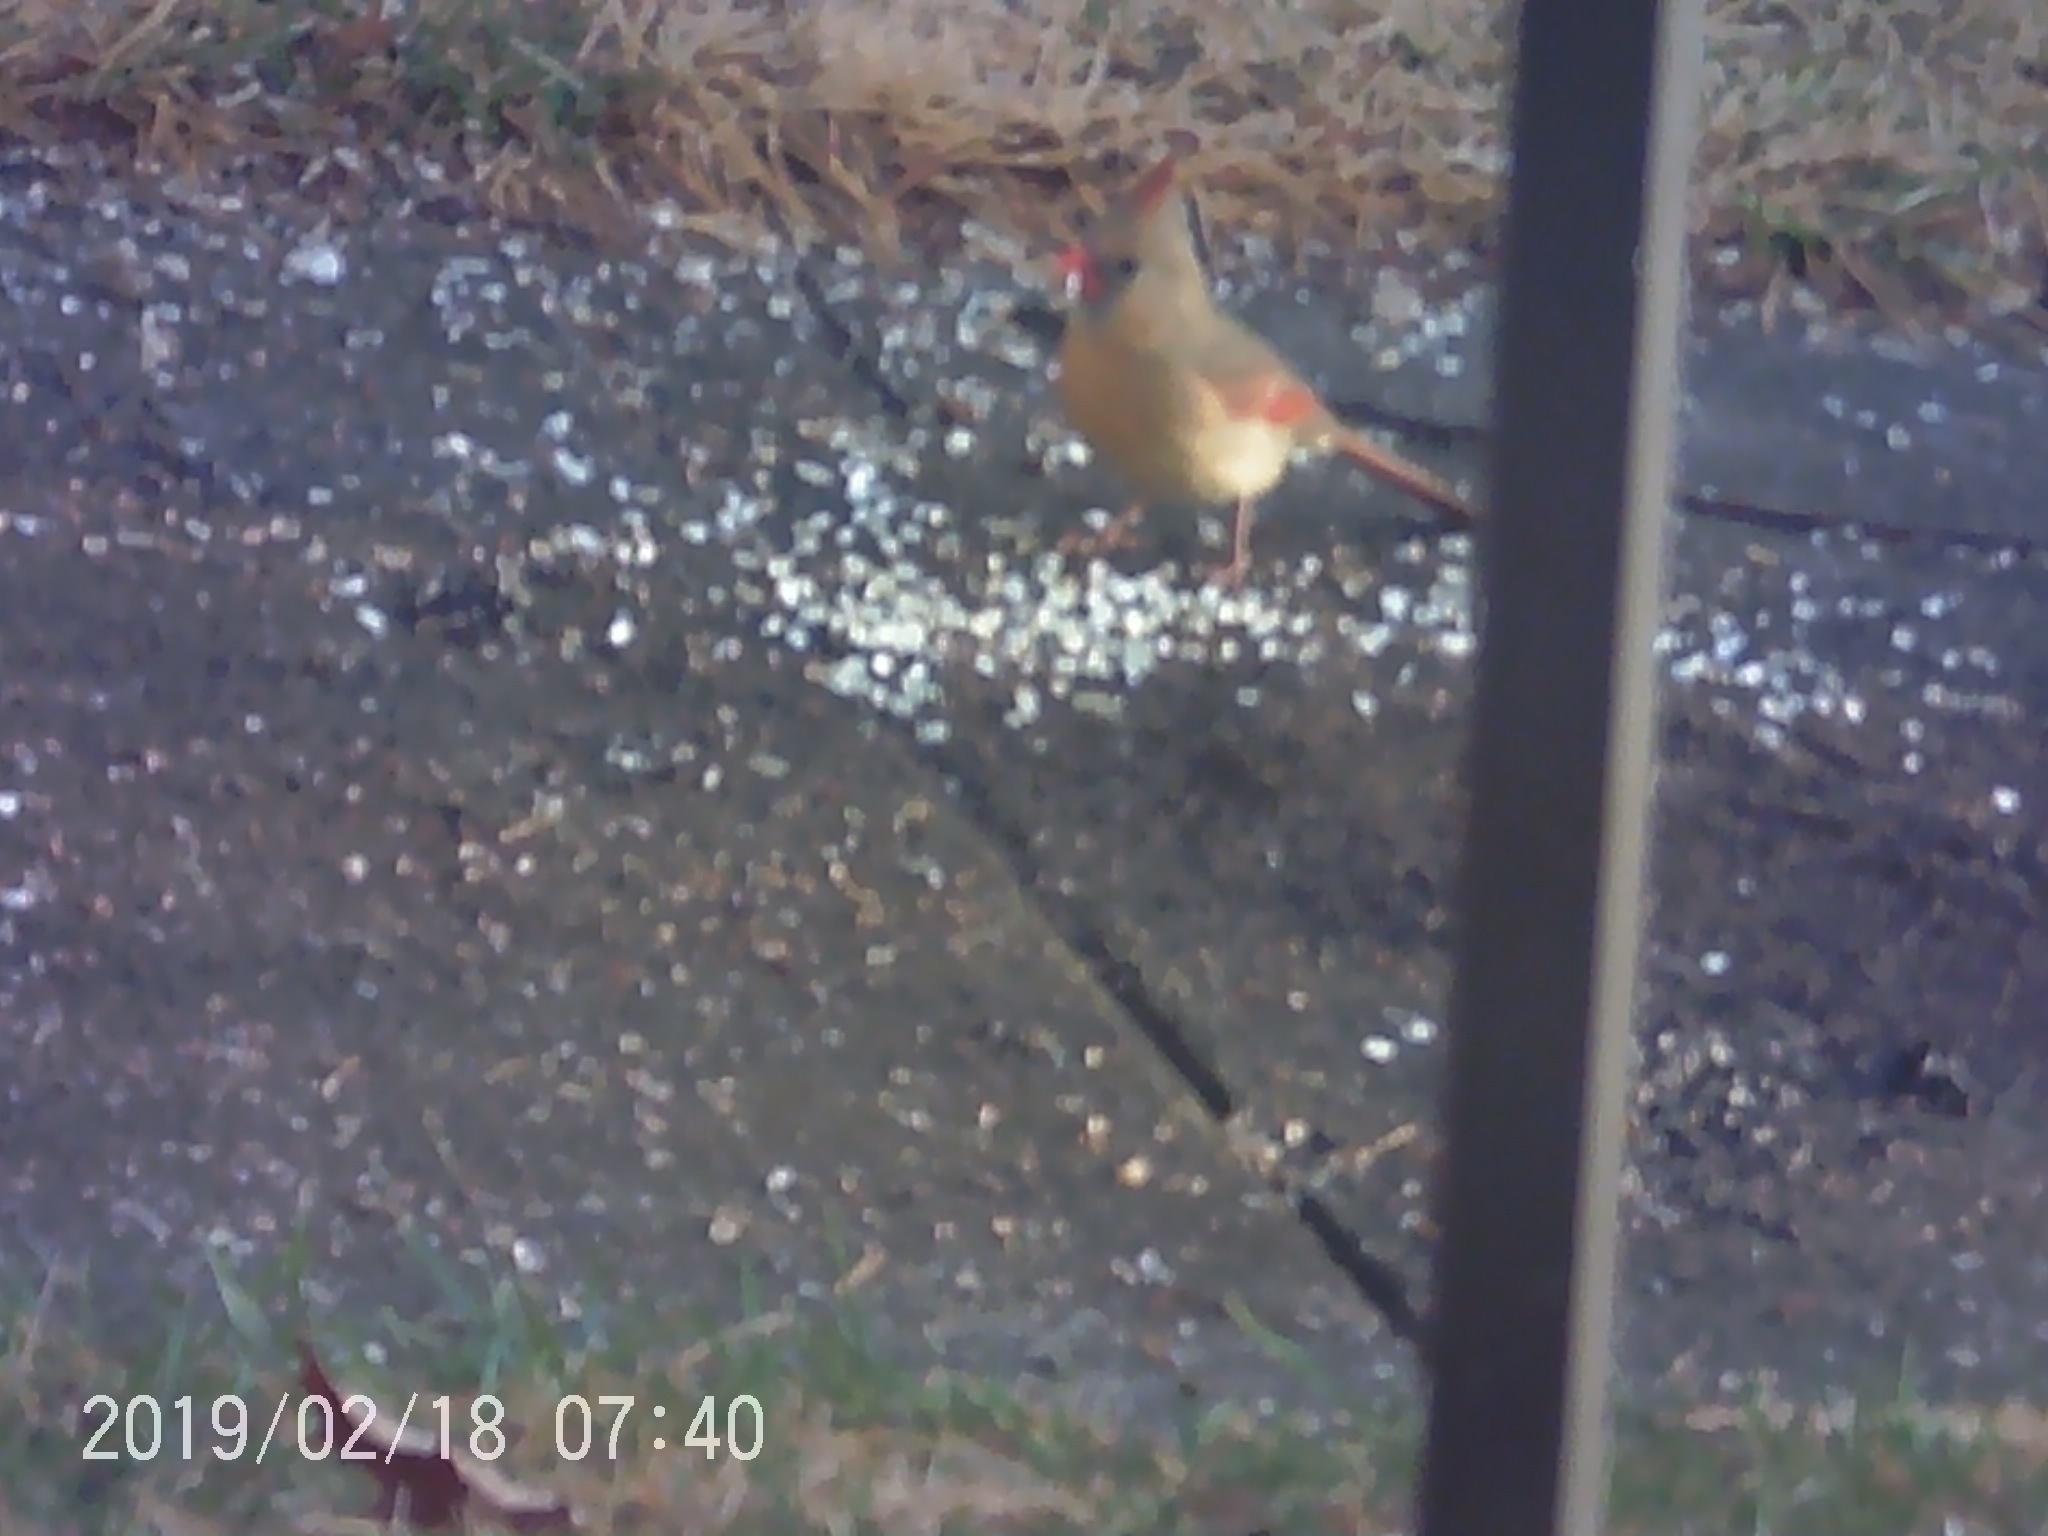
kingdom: Animalia
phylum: Chordata
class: Aves
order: Passeriformes
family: Cardinalidae
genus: Cardinalis
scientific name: Cardinalis cardinalis
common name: Northern cardinal
